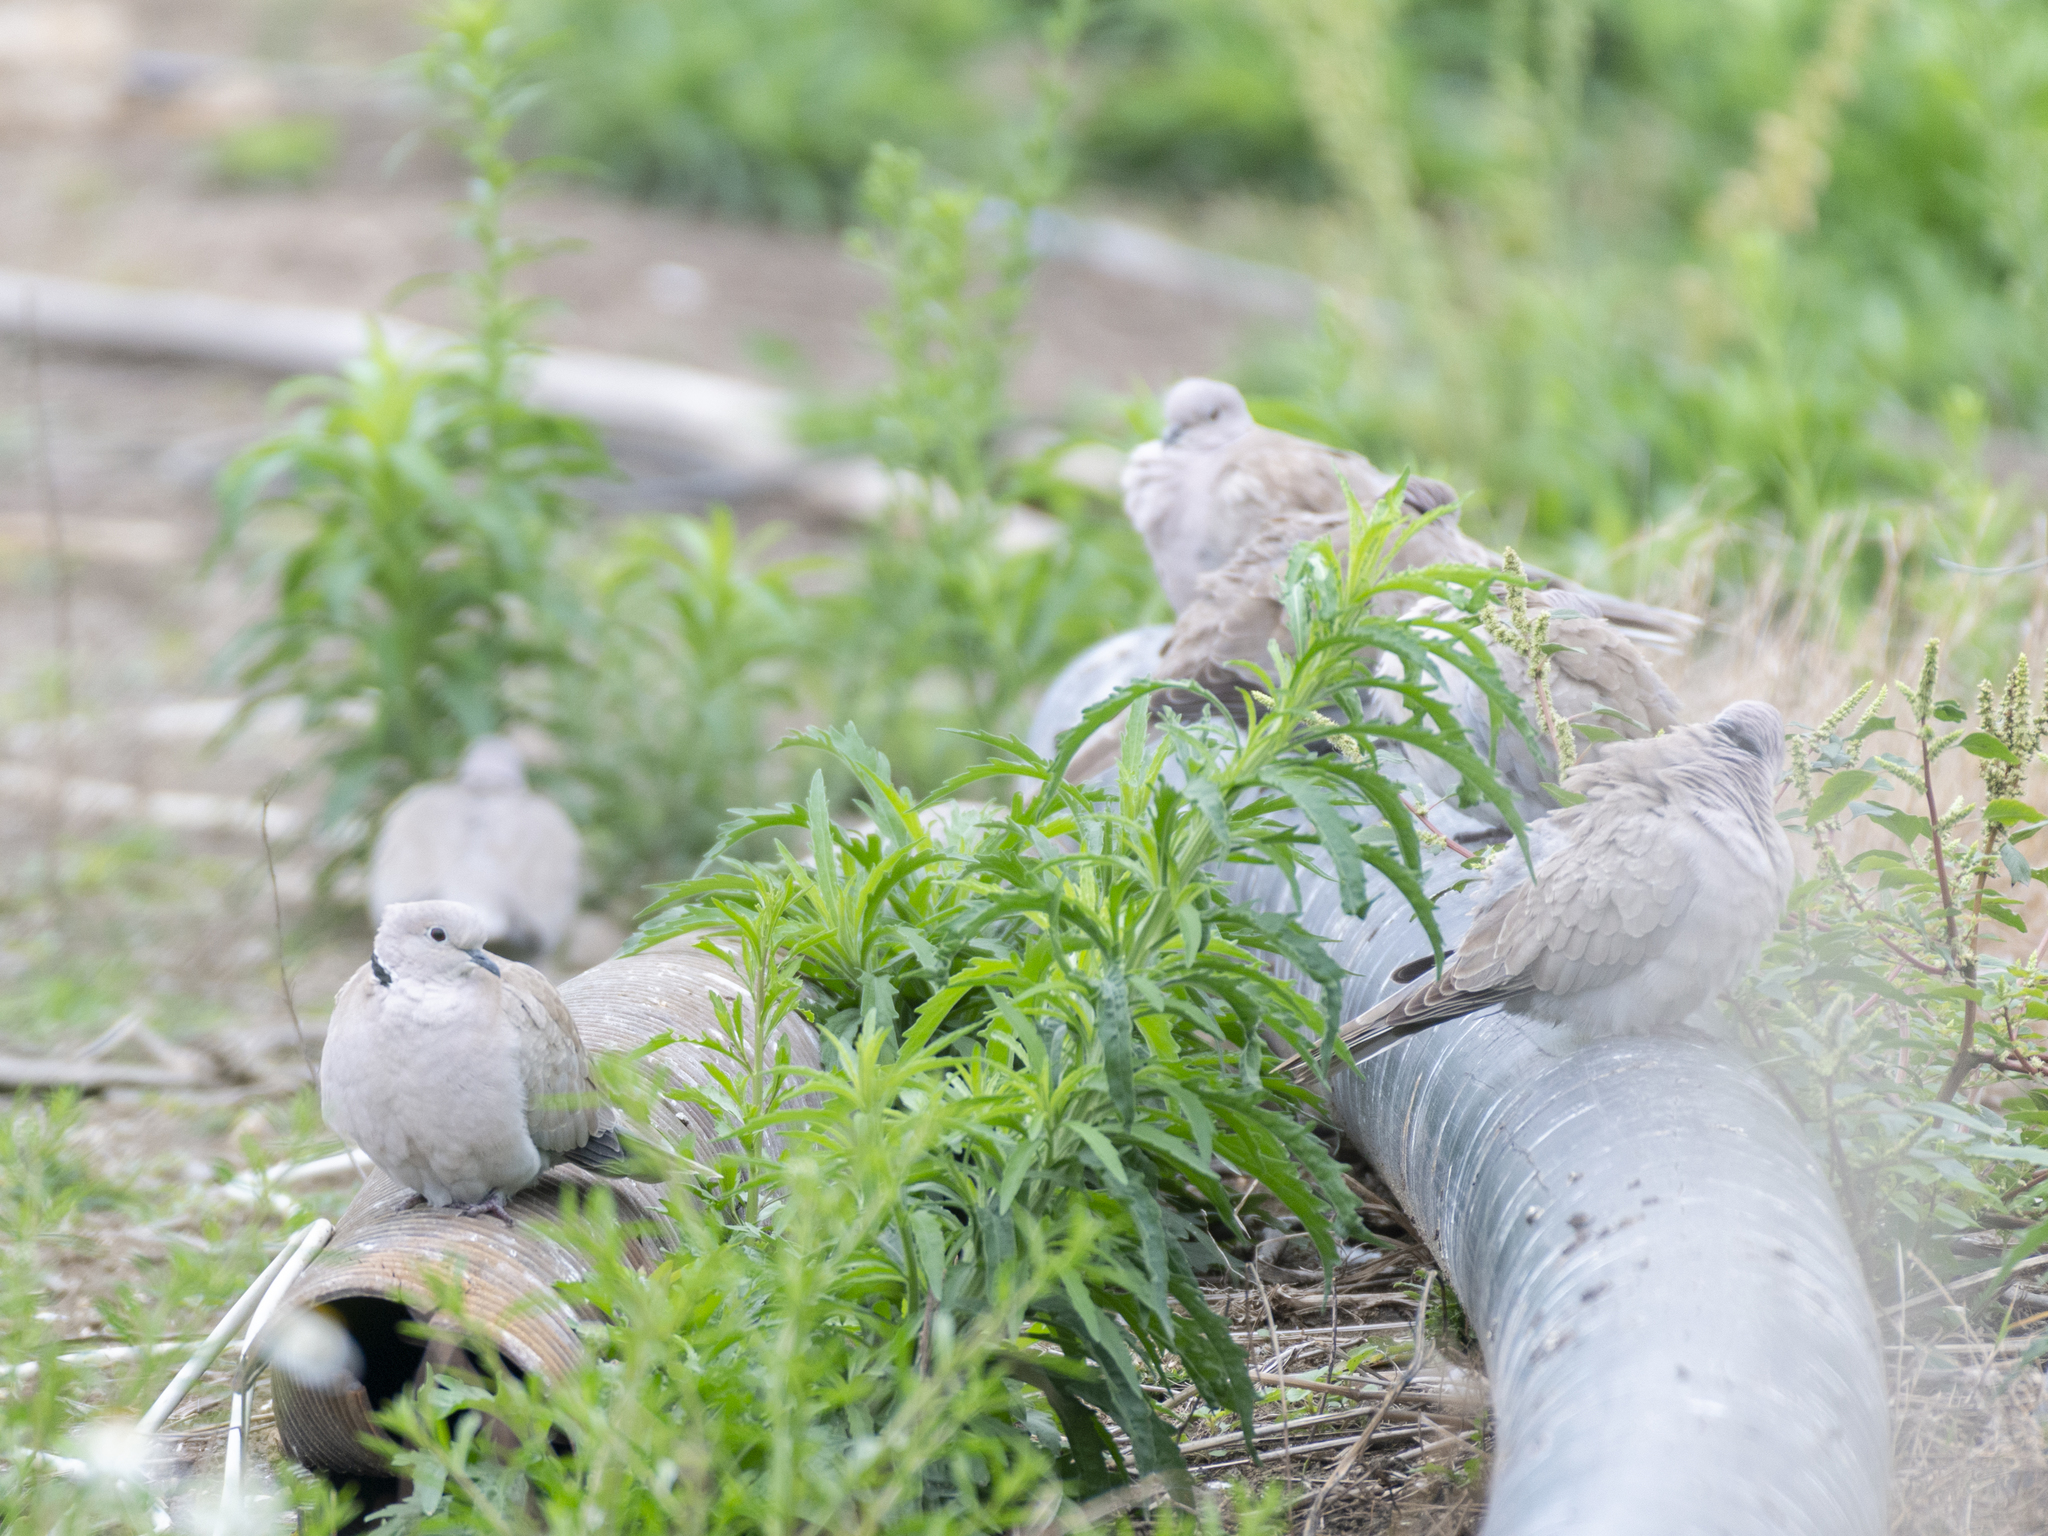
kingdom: Animalia
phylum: Chordata
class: Aves
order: Columbiformes
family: Columbidae
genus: Streptopelia
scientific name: Streptopelia decaocto
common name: Eurasian collared dove
